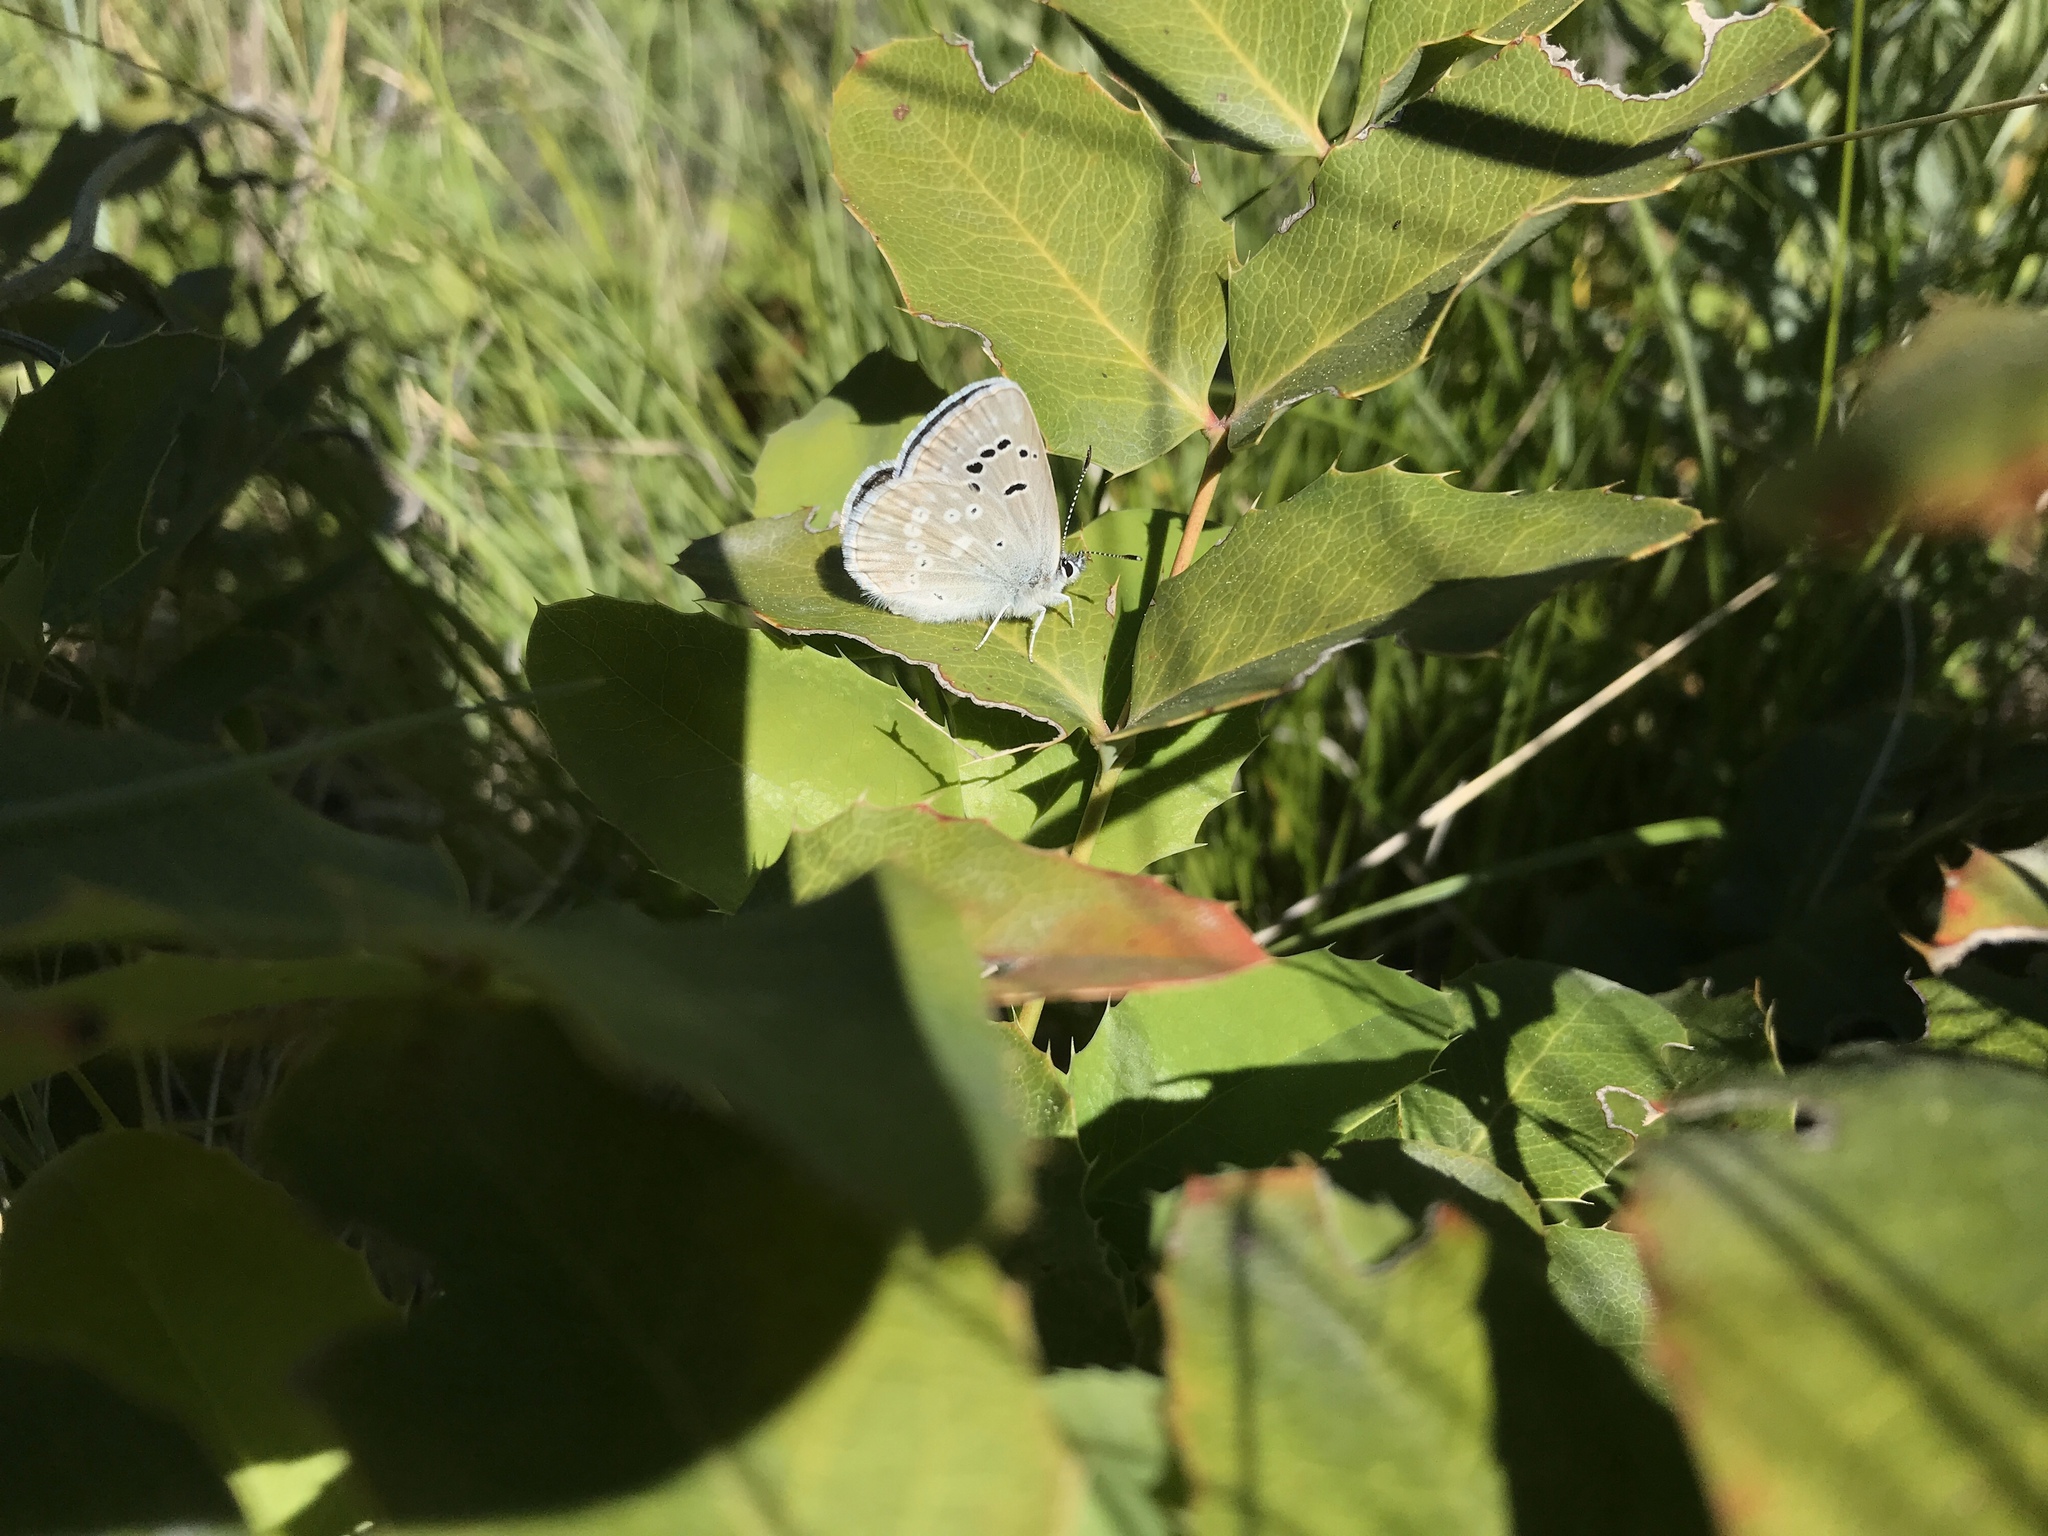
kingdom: Animalia
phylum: Arthropoda
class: Insecta
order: Lepidoptera
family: Lycaenidae
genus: Icaricia
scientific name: Icaricia icarioides
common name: Boisduval's blue
